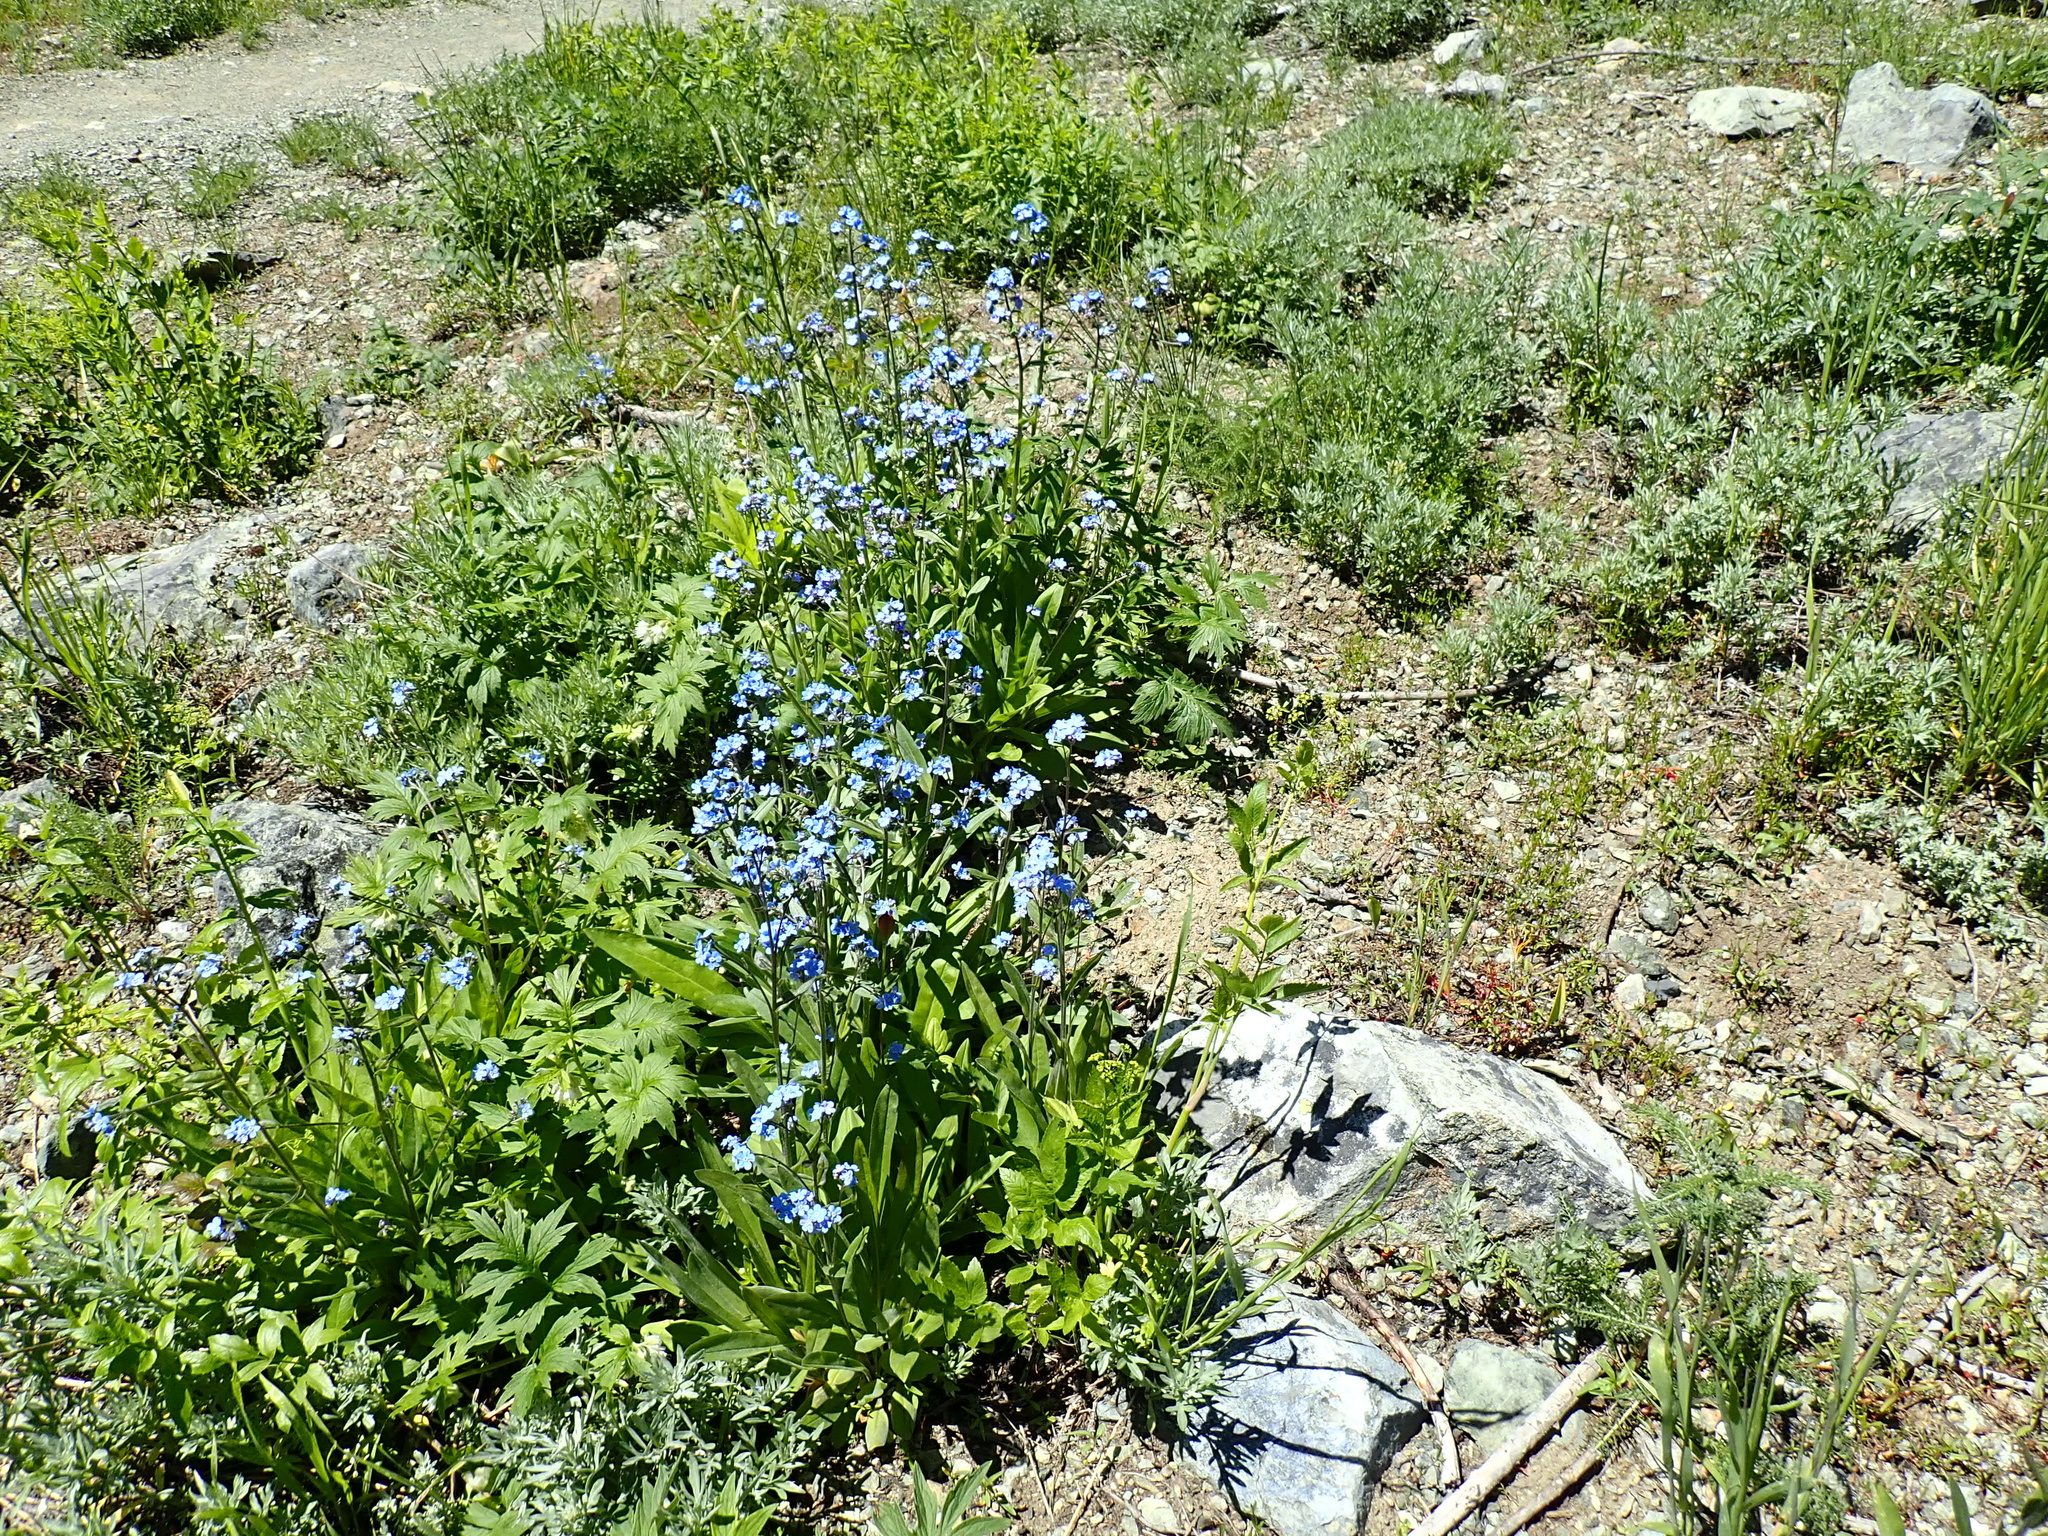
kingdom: Plantae
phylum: Tracheophyta
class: Magnoliopsida
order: Boraginales
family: Boraginaceae
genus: Hackelia
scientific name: Hackelia micrantha
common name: Meadow stickseed
